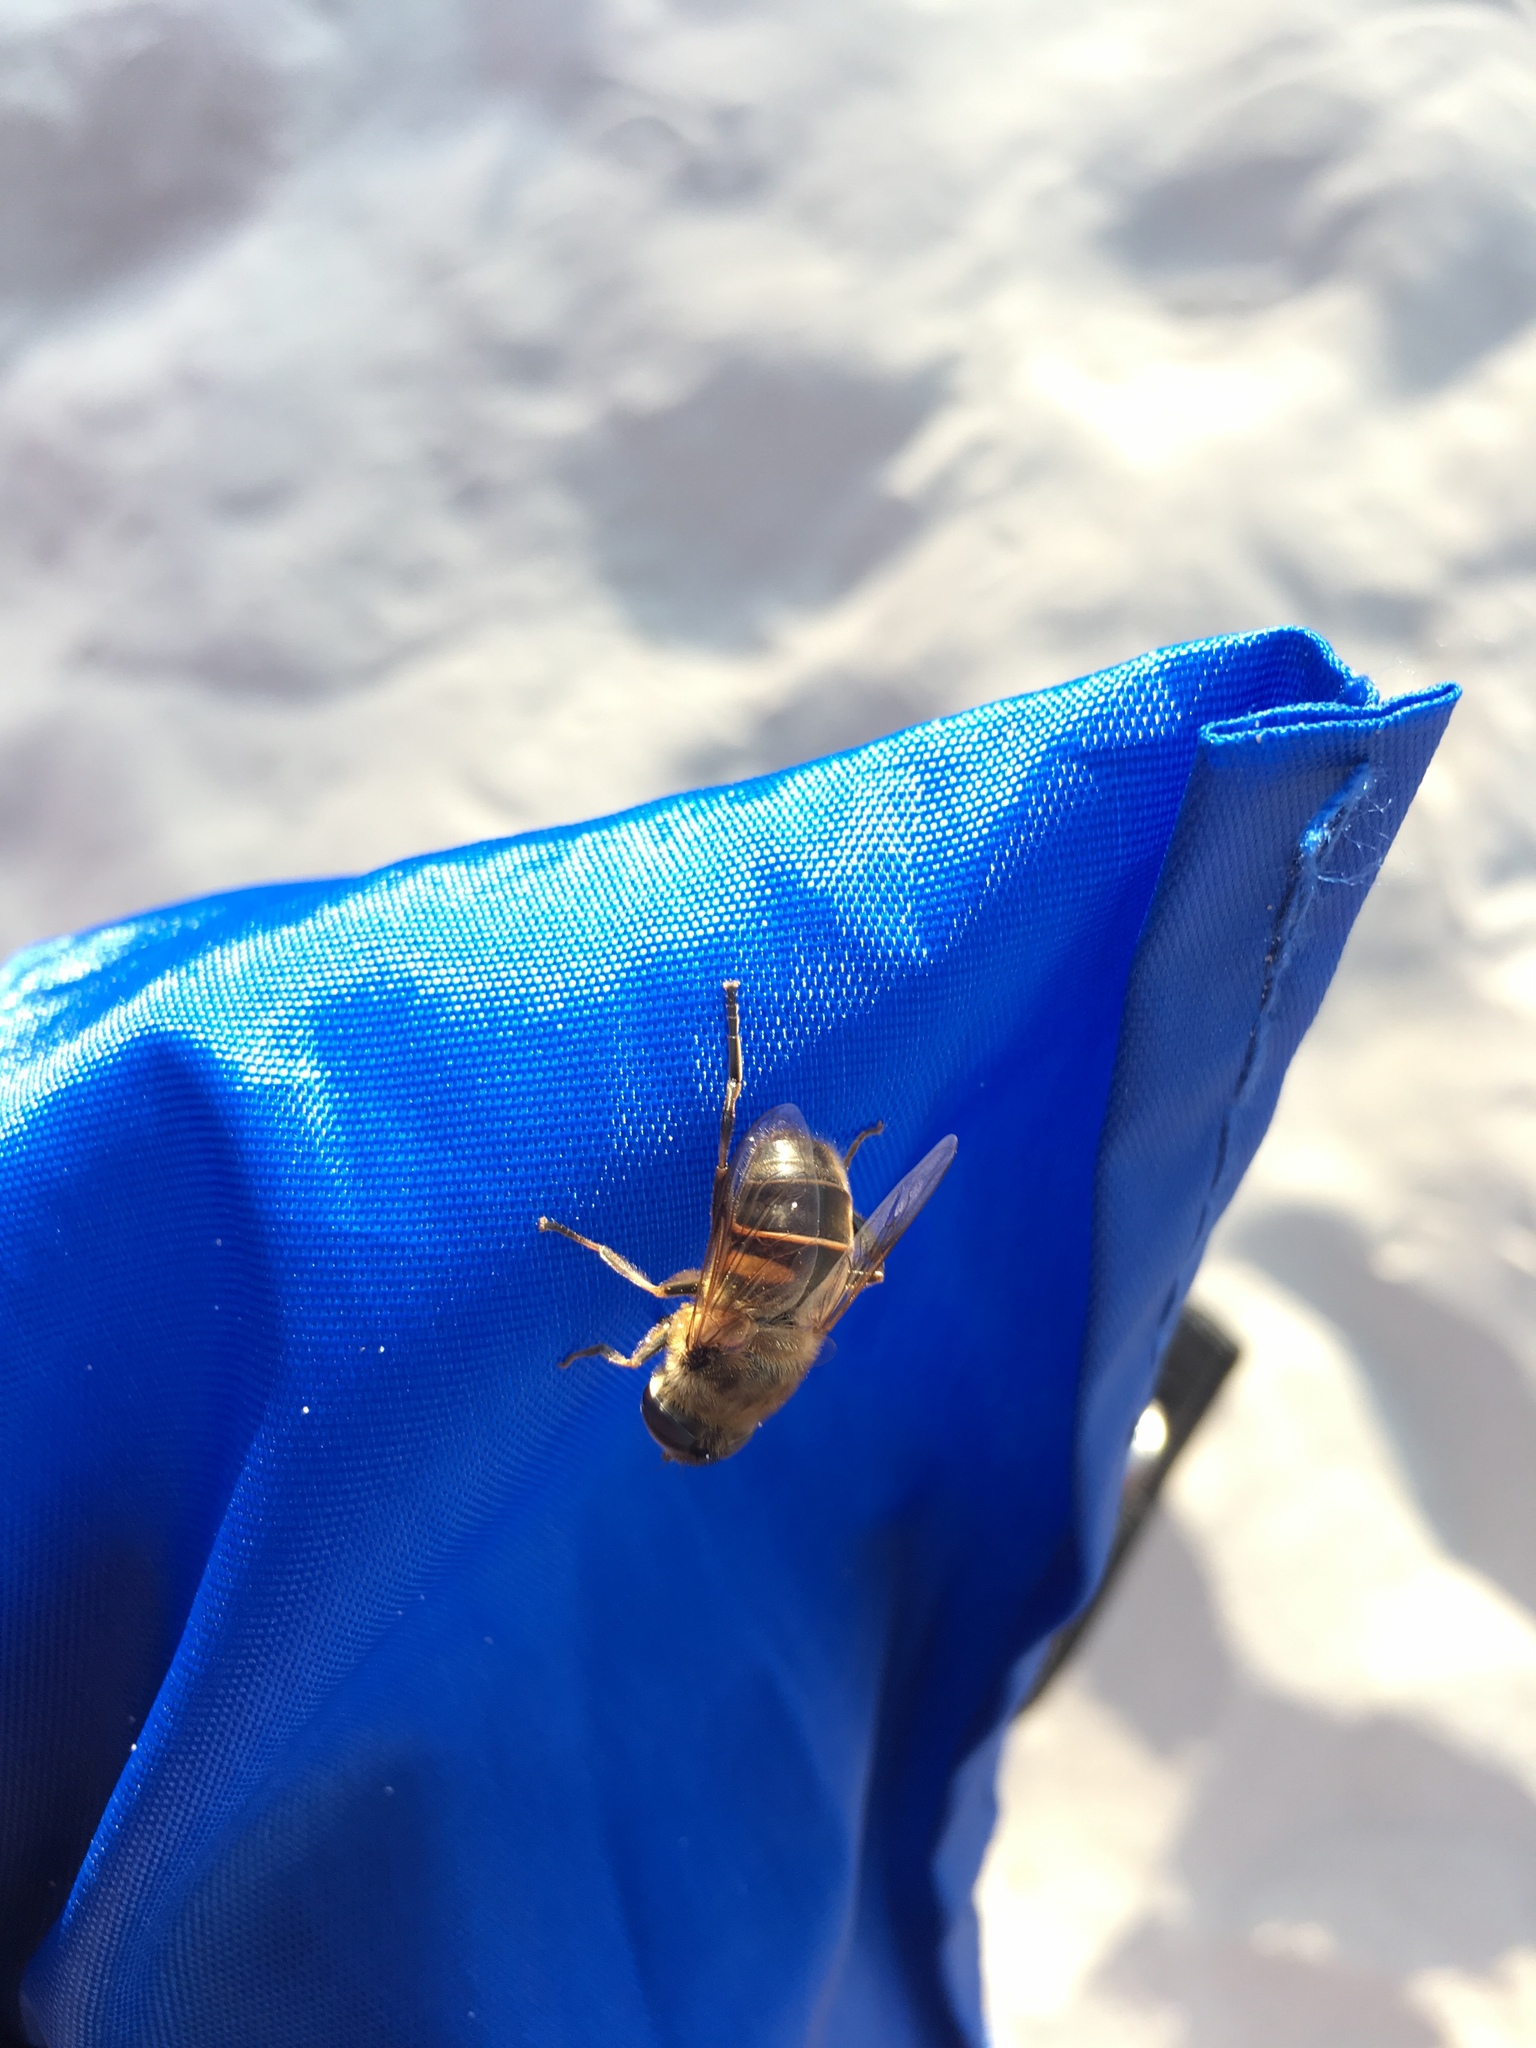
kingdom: Animalia
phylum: Arthropoda
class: Insecta
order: Diptera
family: Syrphidae
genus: Eristalis
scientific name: Eristalis tenax
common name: Drone fly
